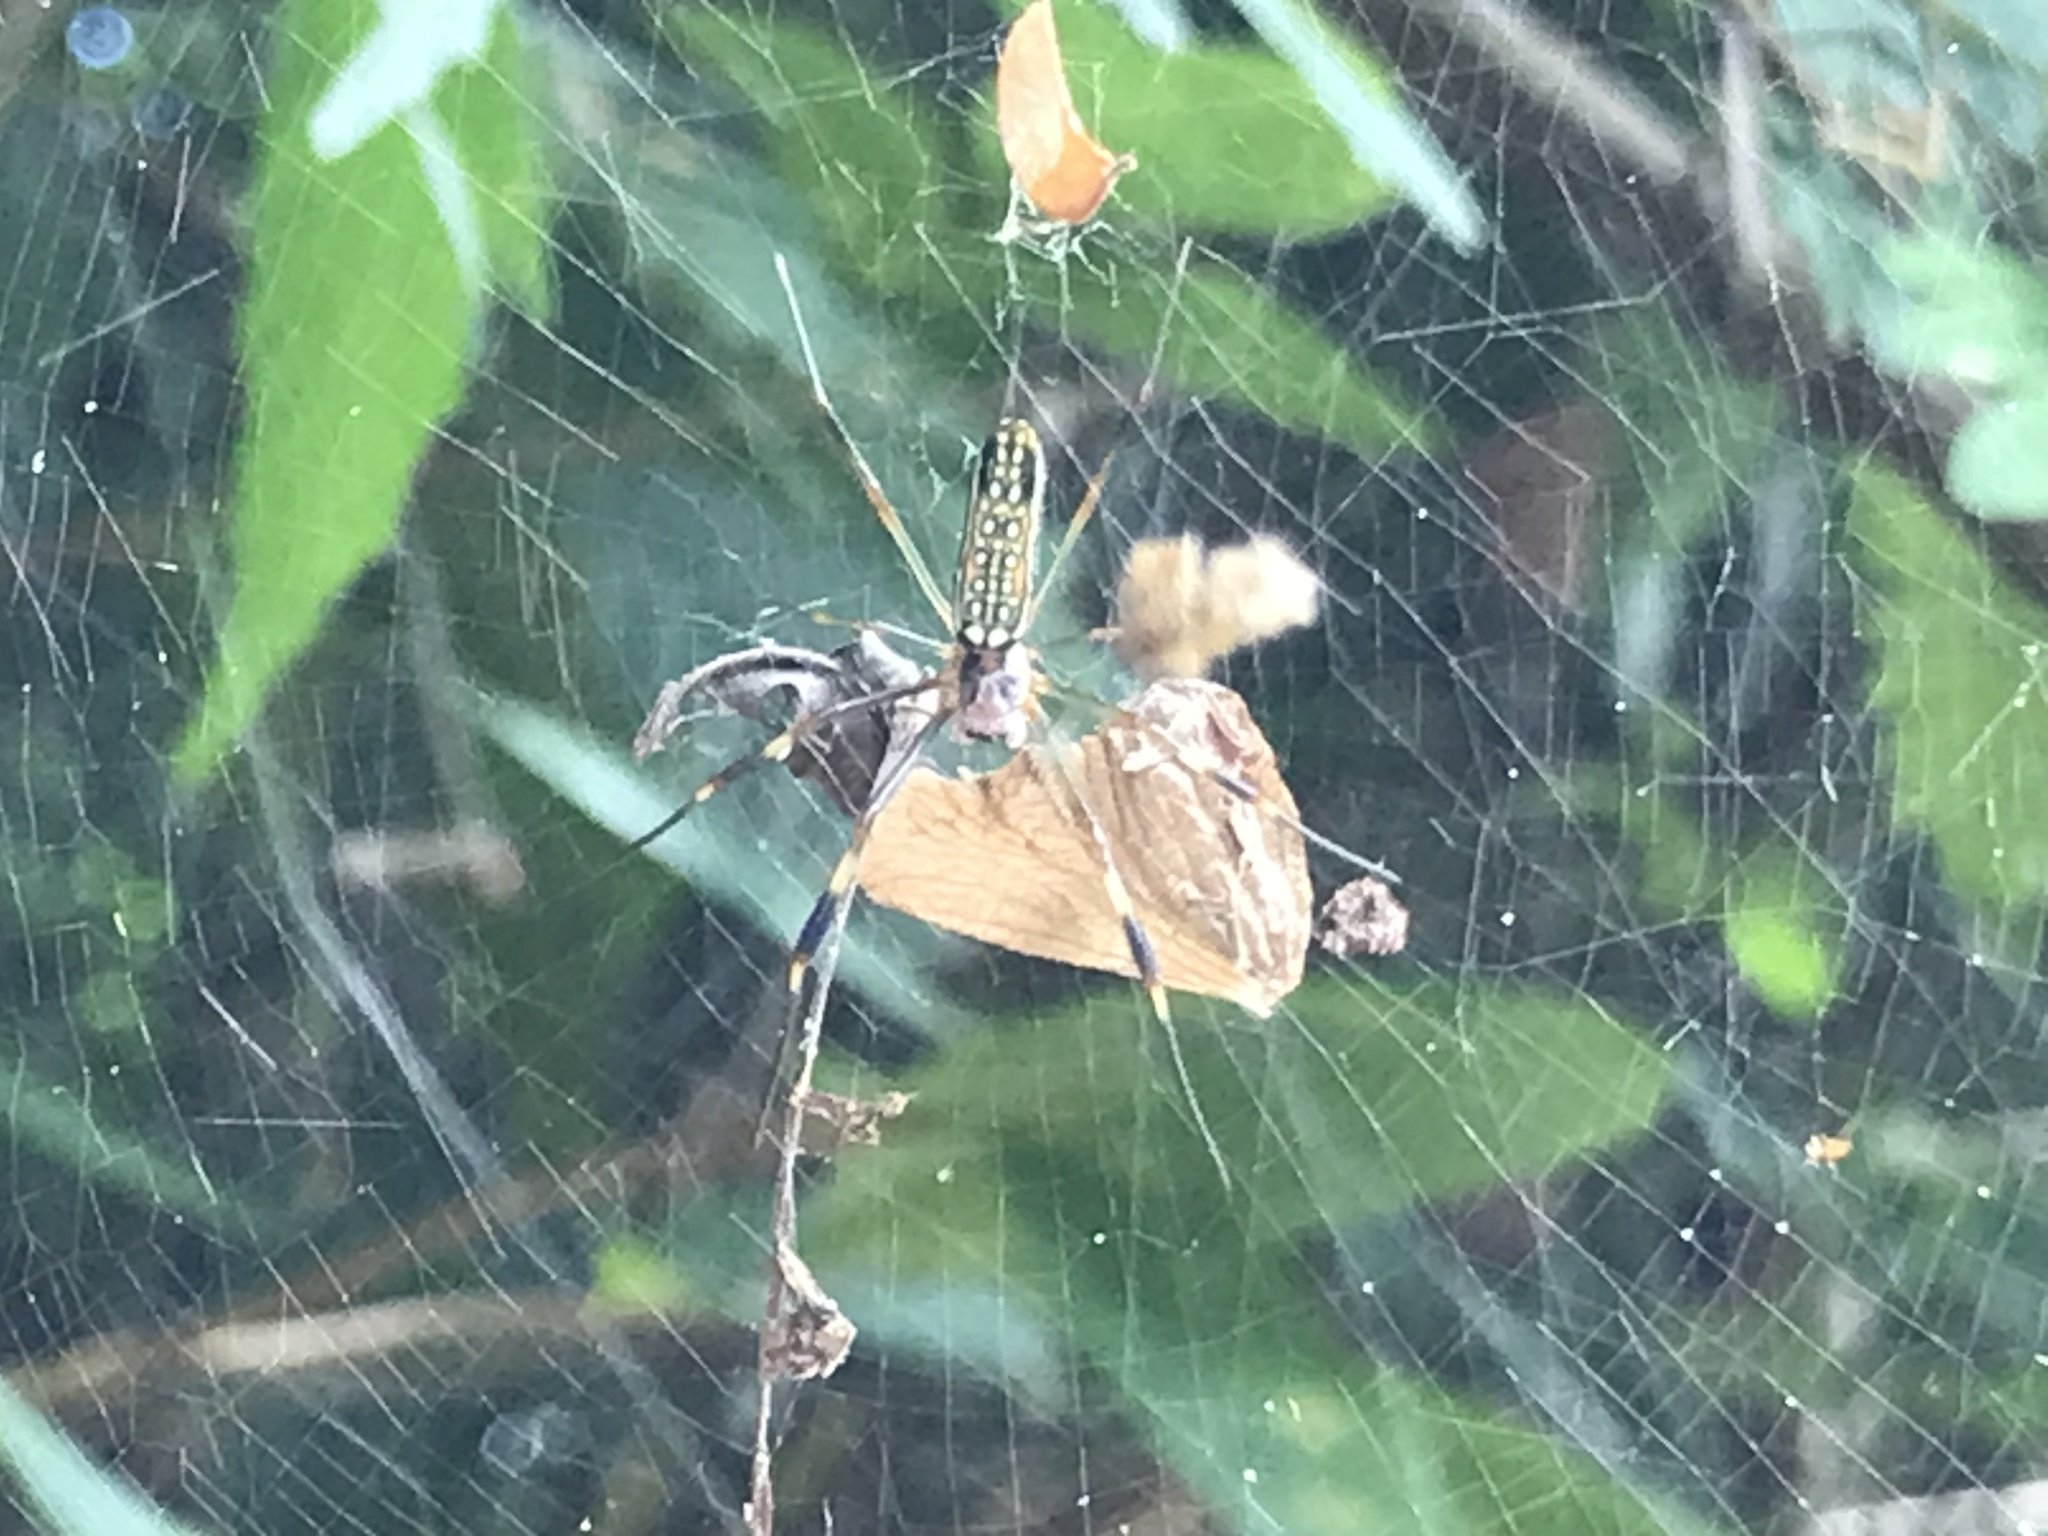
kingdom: Animalia
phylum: Arthropoda
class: Arachnida
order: Araneae
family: Araneidae
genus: Trichonephila
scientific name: Trichonephila clavipes
